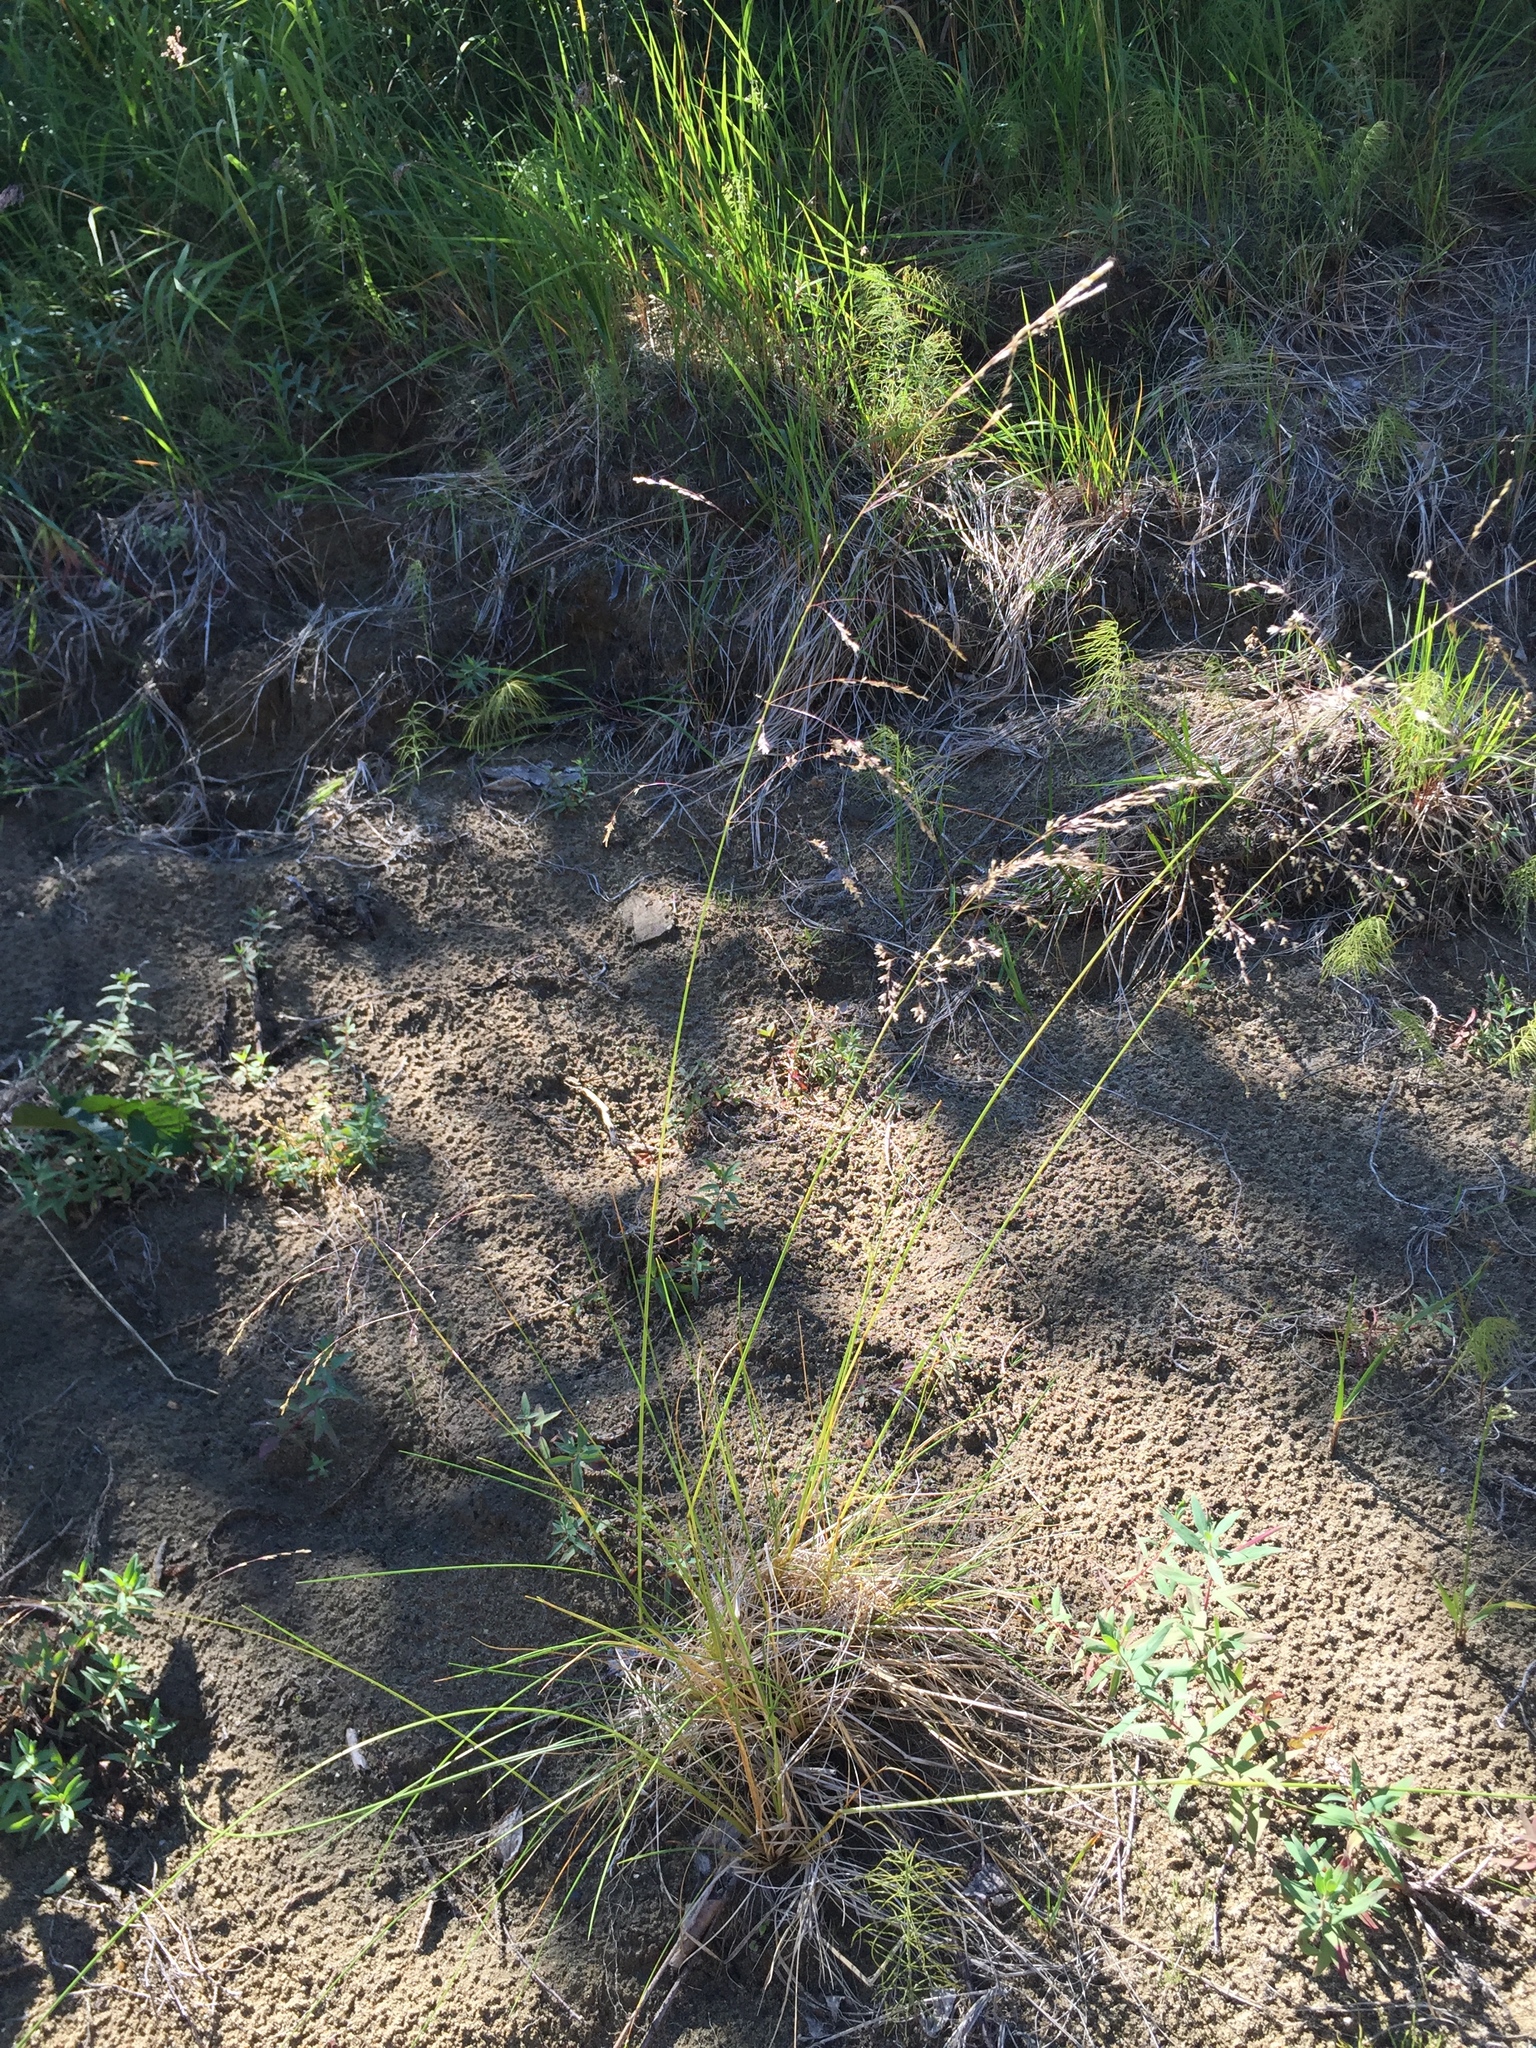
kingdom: Plantae
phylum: Tracheophyta
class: Liliopsida
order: Poales
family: Poaceae
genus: Deschampsia
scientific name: Deschampsia cespitosa
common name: Tufted hair-grass
